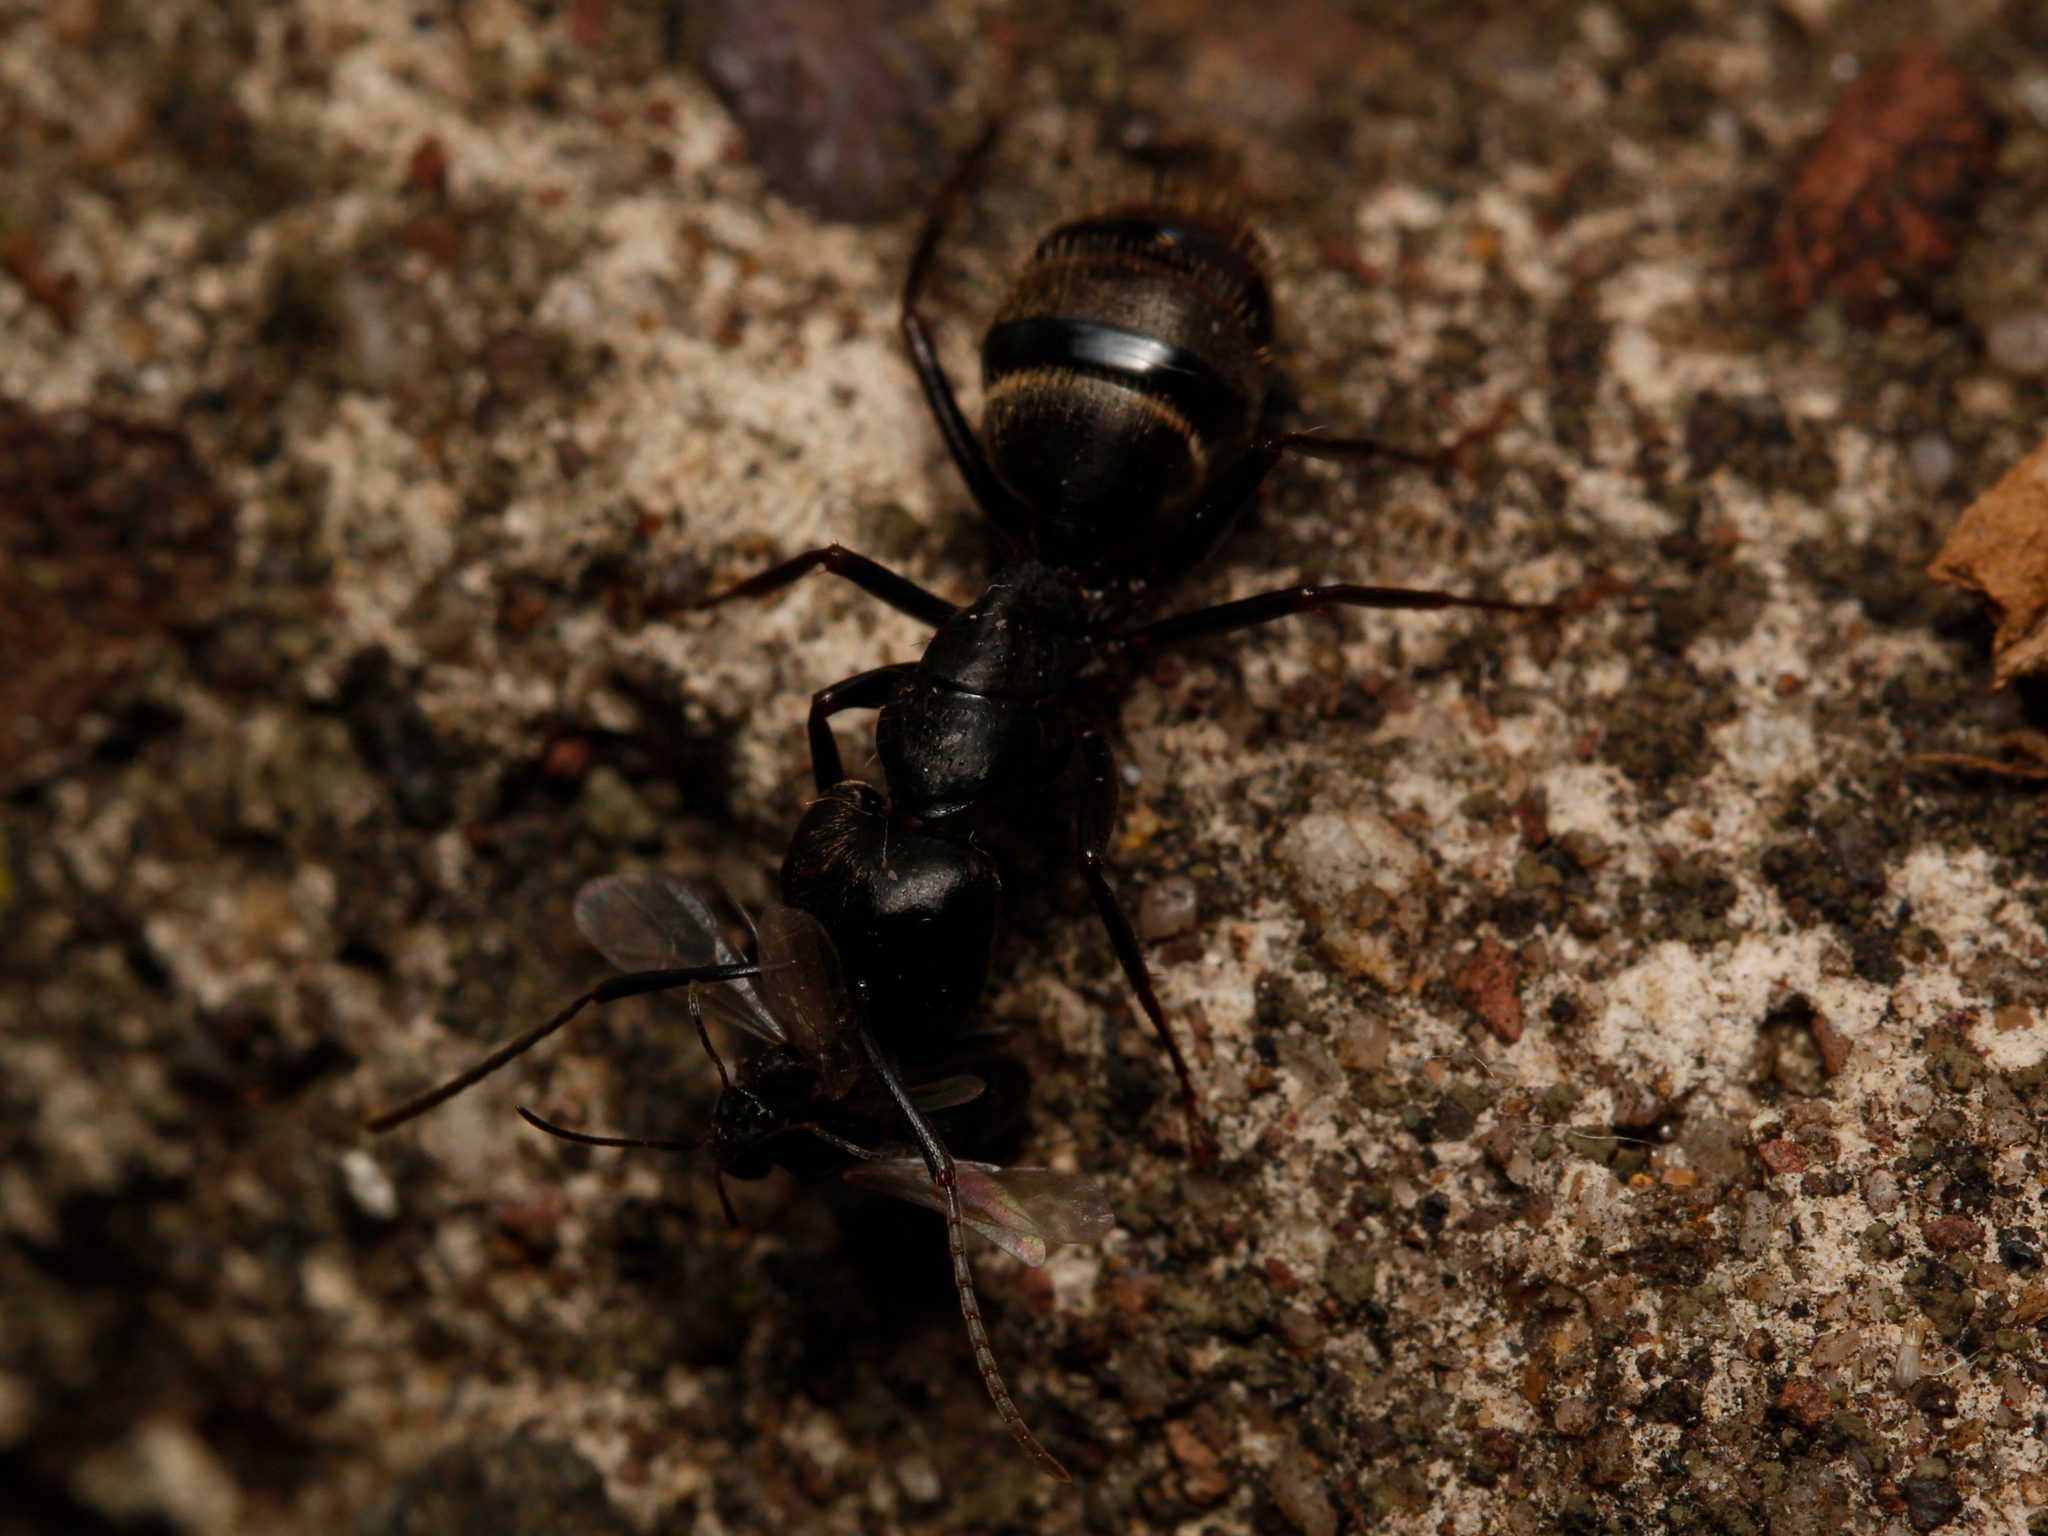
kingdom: Animalia
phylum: Arthropoda
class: Insecta
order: Hymenoptera
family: Formicidae
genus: Camponotus
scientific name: Camponotus pennsylvanicus
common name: Black carpenter ant
